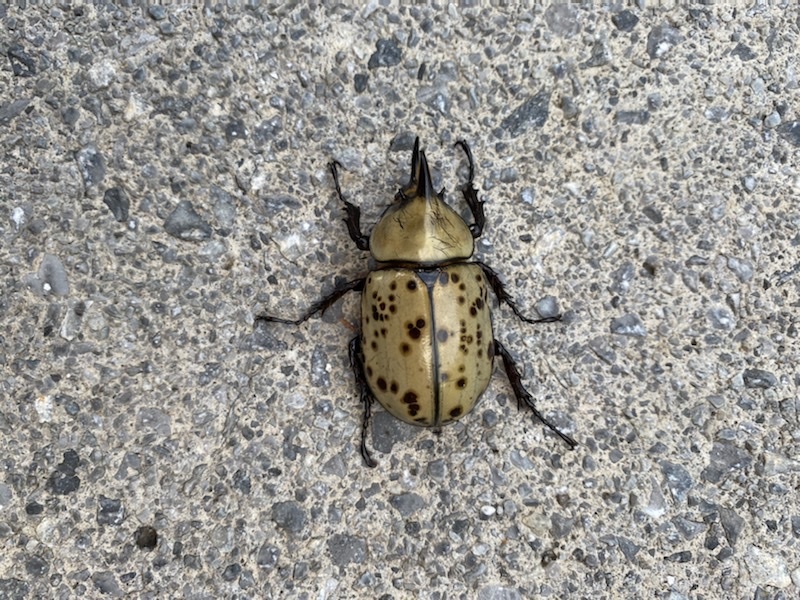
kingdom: Animalia
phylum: Arthropoda
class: Insecta
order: Coleoptera
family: Scarabaeidae
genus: Dynastes
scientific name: Dynastes tityus
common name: Eastern hercules beetle
